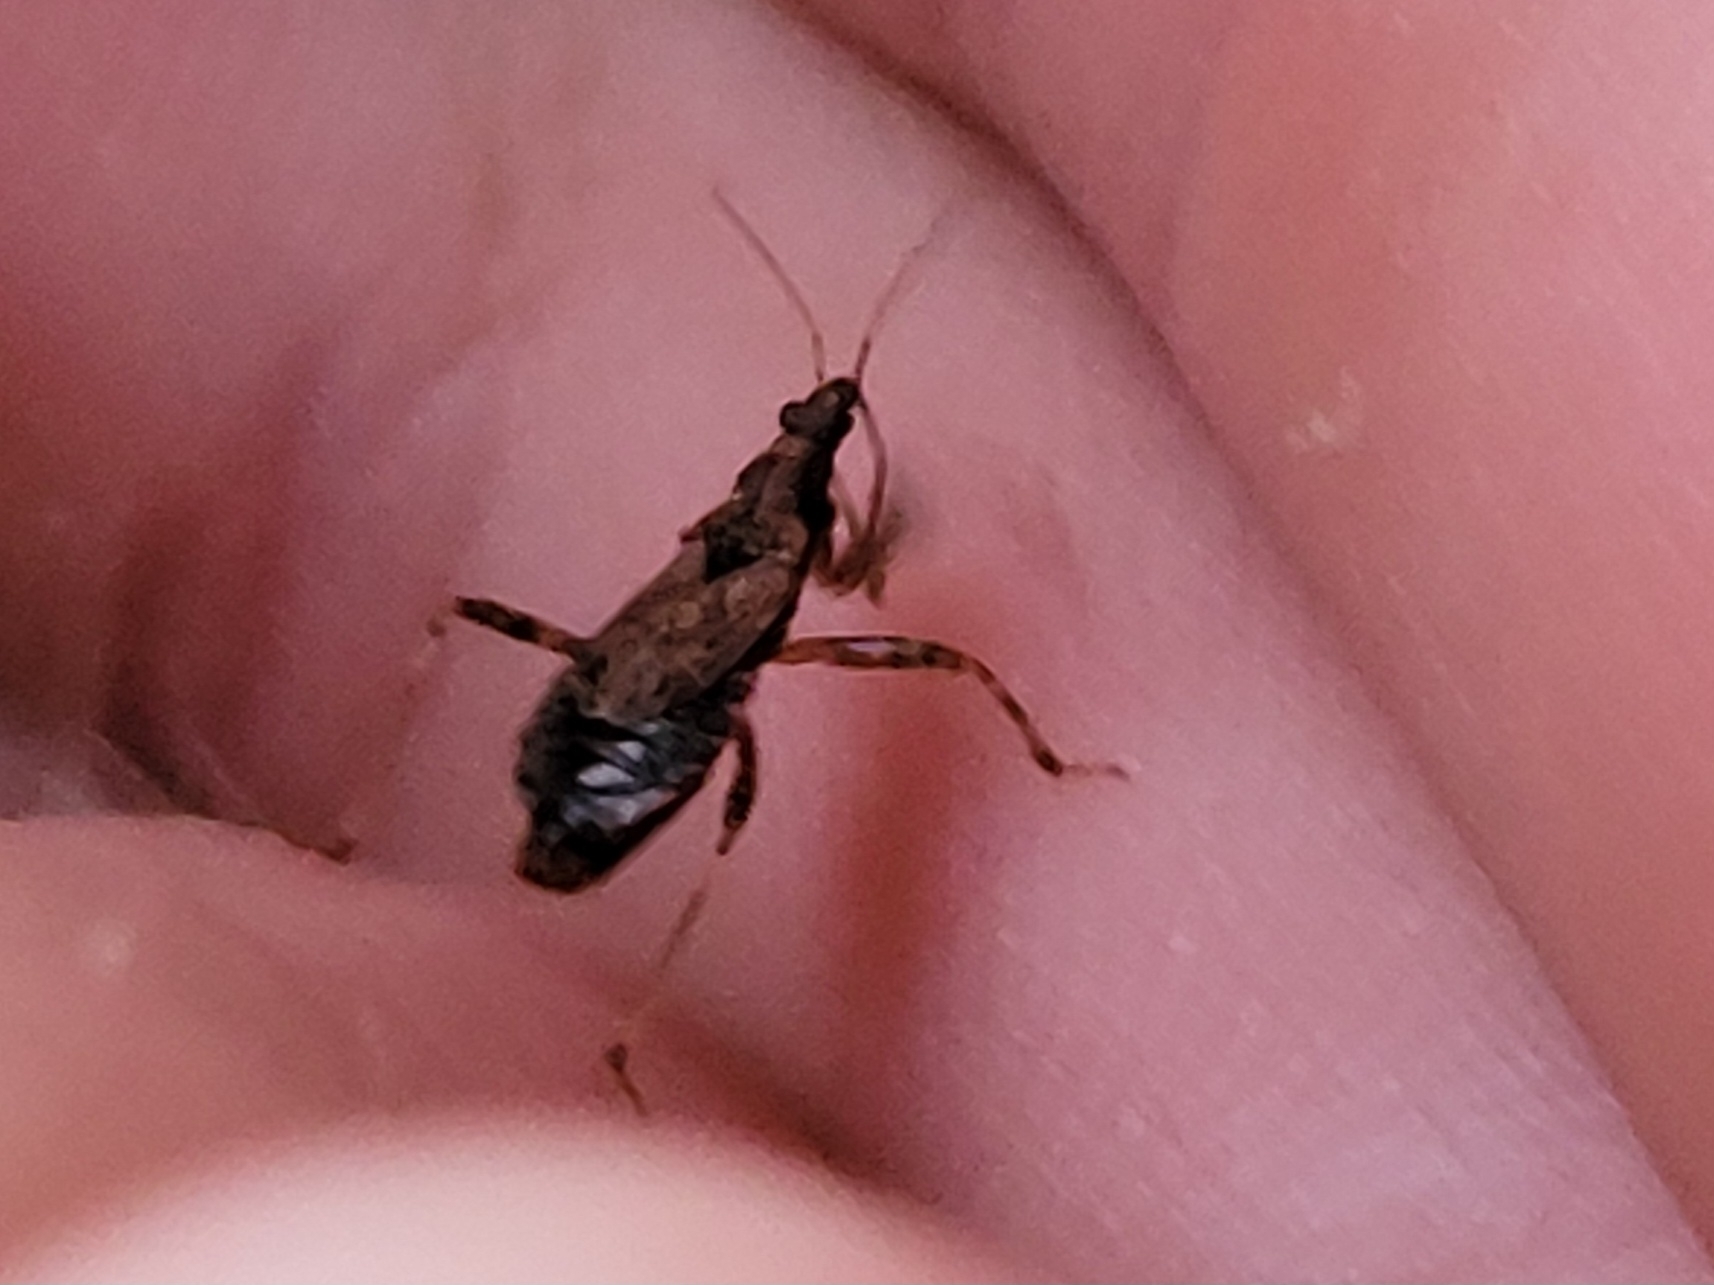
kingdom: Animalia
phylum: Arthropoda
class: Insecta
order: Hemiptera
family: Nabidae
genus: Himacerus
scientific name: Himacerus mirmicoides
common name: Ant damsel bug
